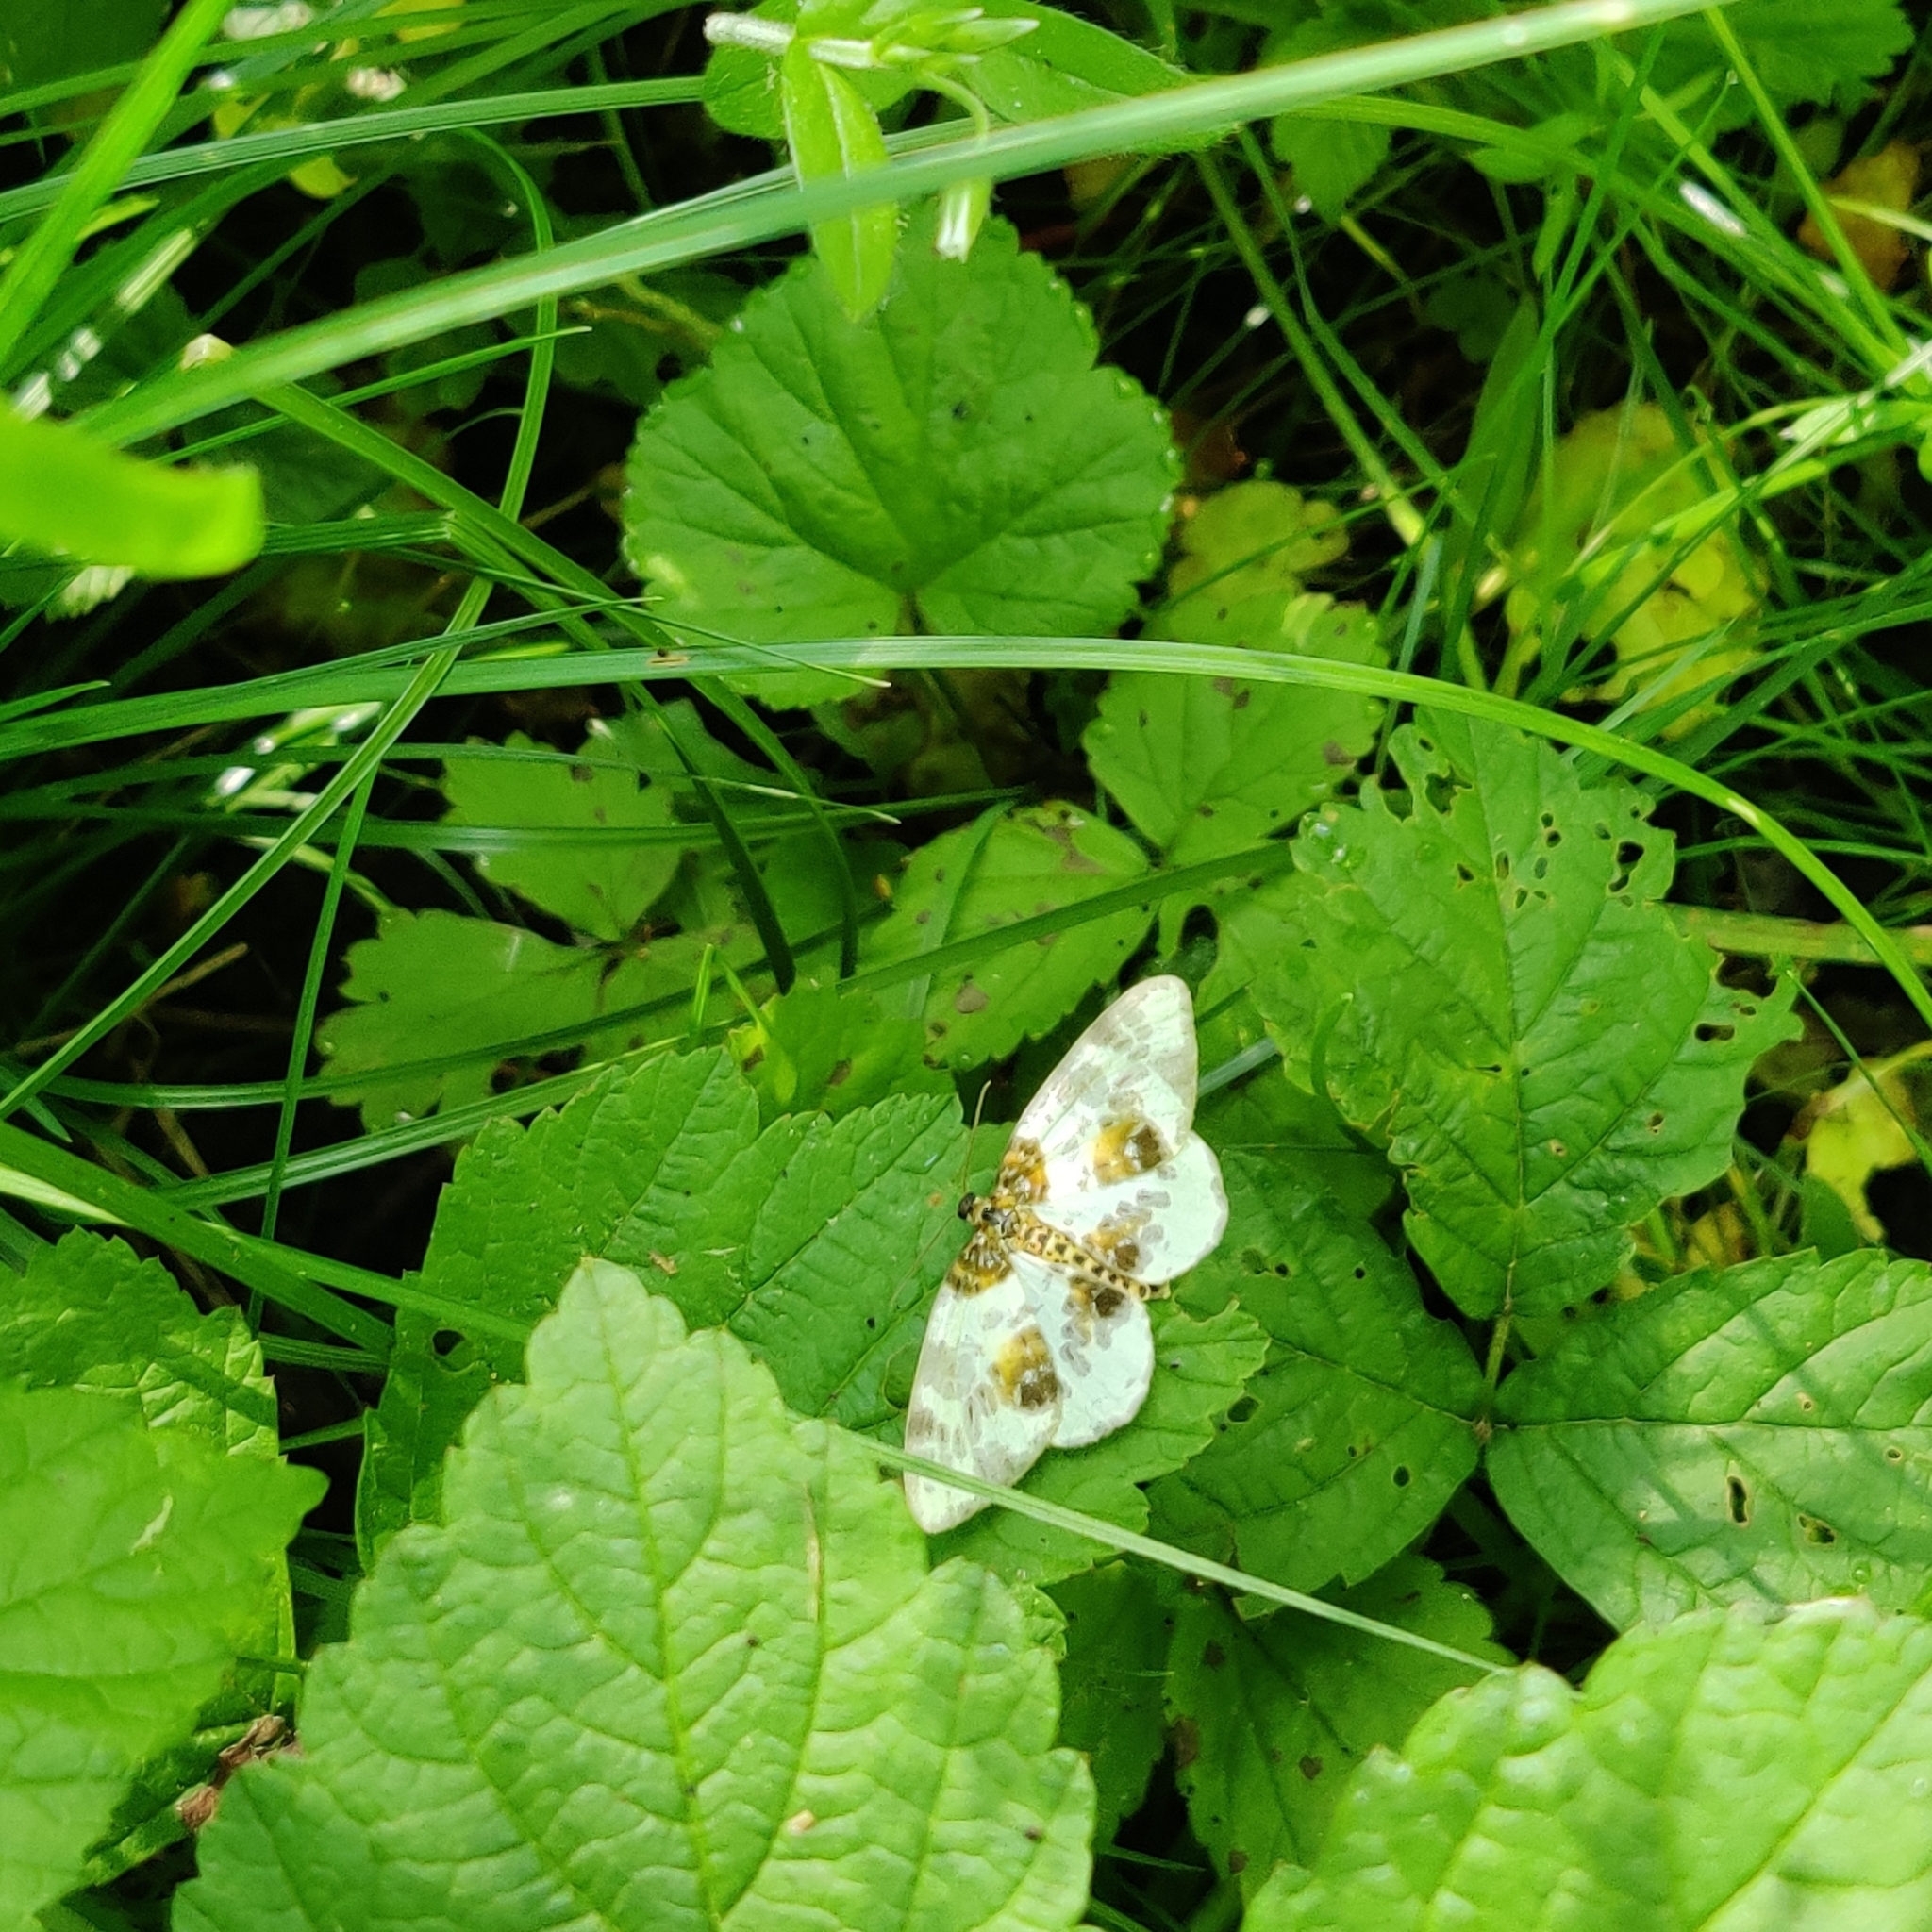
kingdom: Animalia
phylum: Arthropoda
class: Insecta
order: Lepidoptera
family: Geometridae
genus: Abraxas
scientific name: Abraxas sylvata
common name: Clouded magpie
